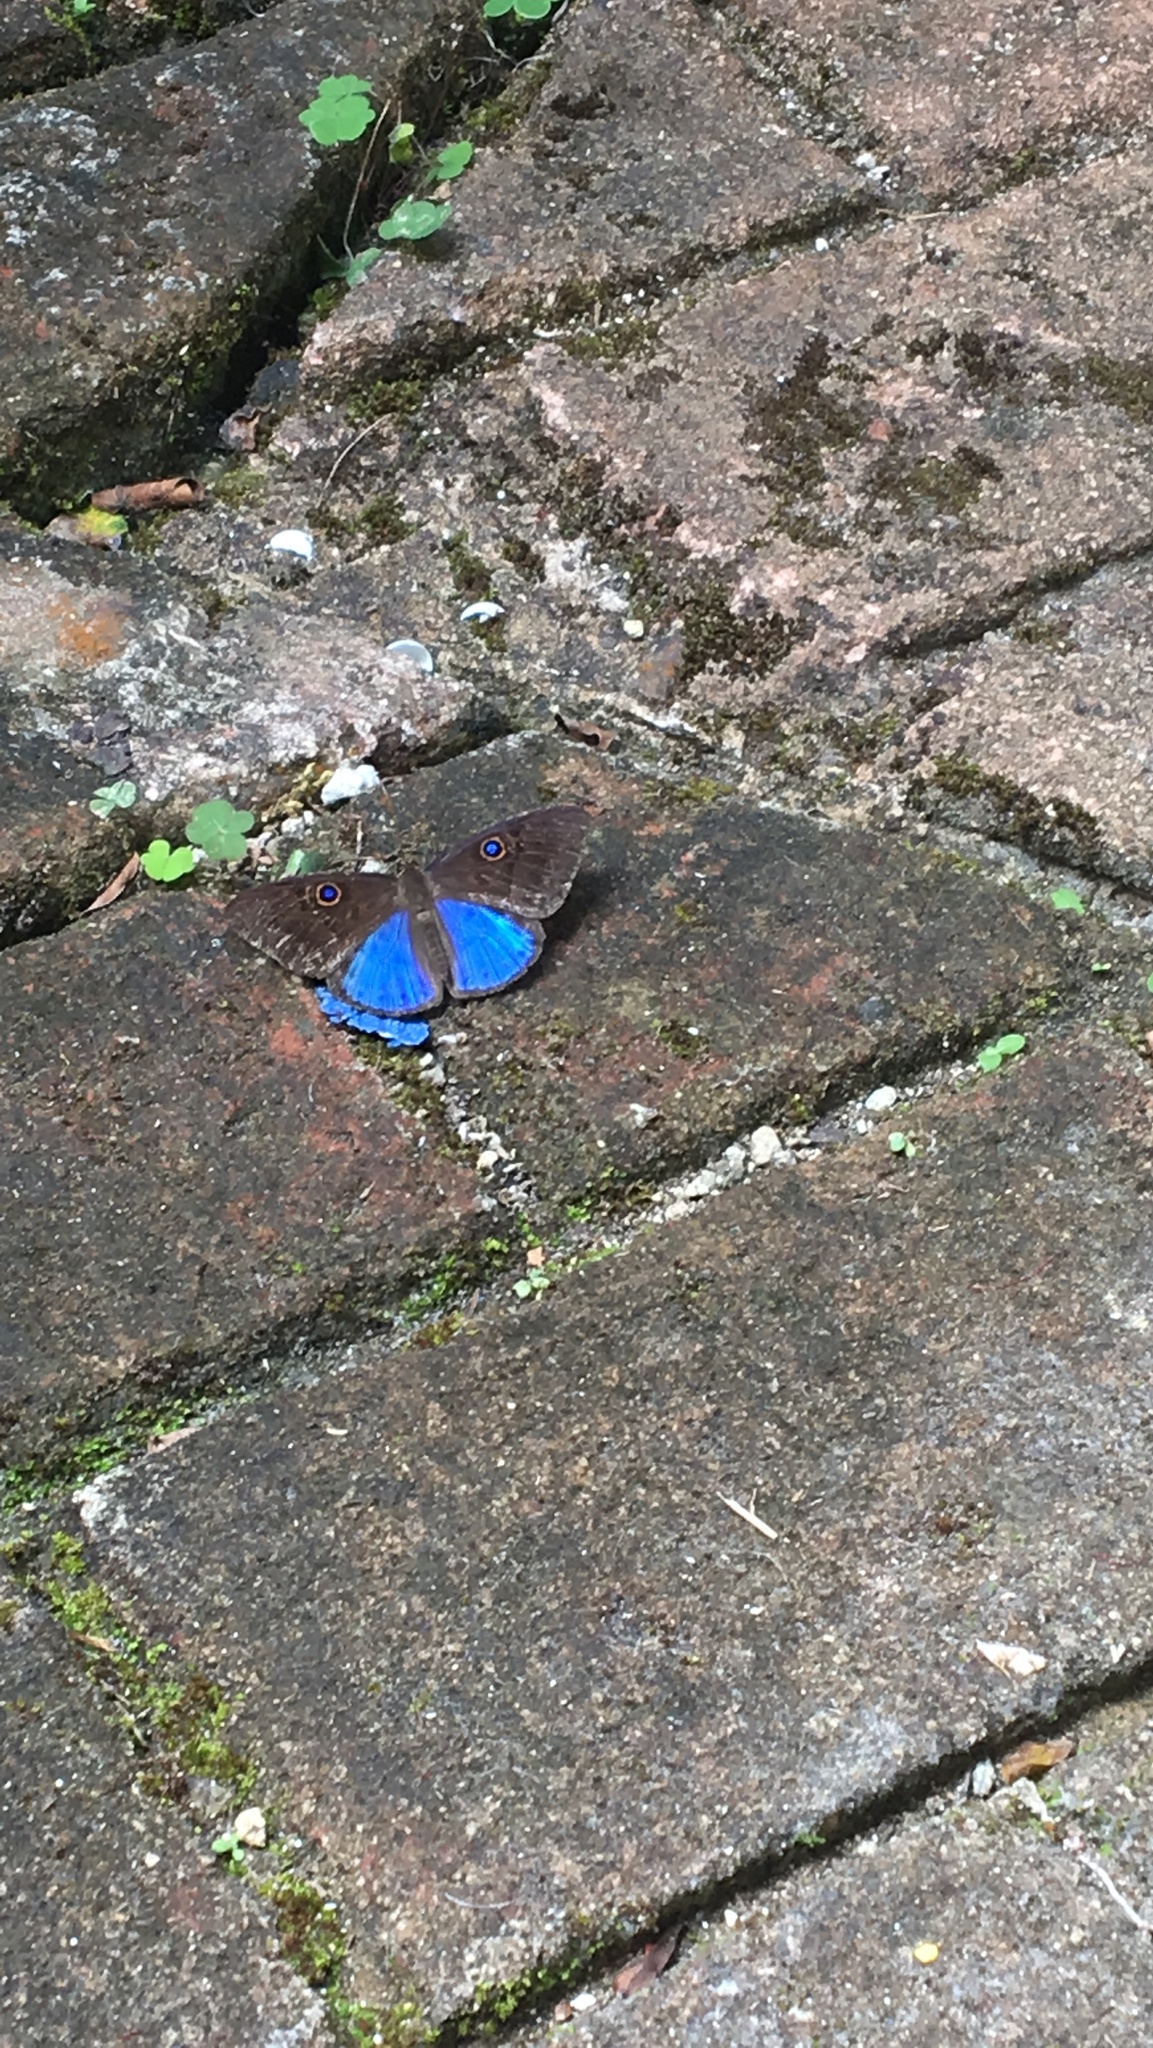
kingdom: Animalia
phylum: Cnidaria
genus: Eurybia
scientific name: Eurybia lycisca
